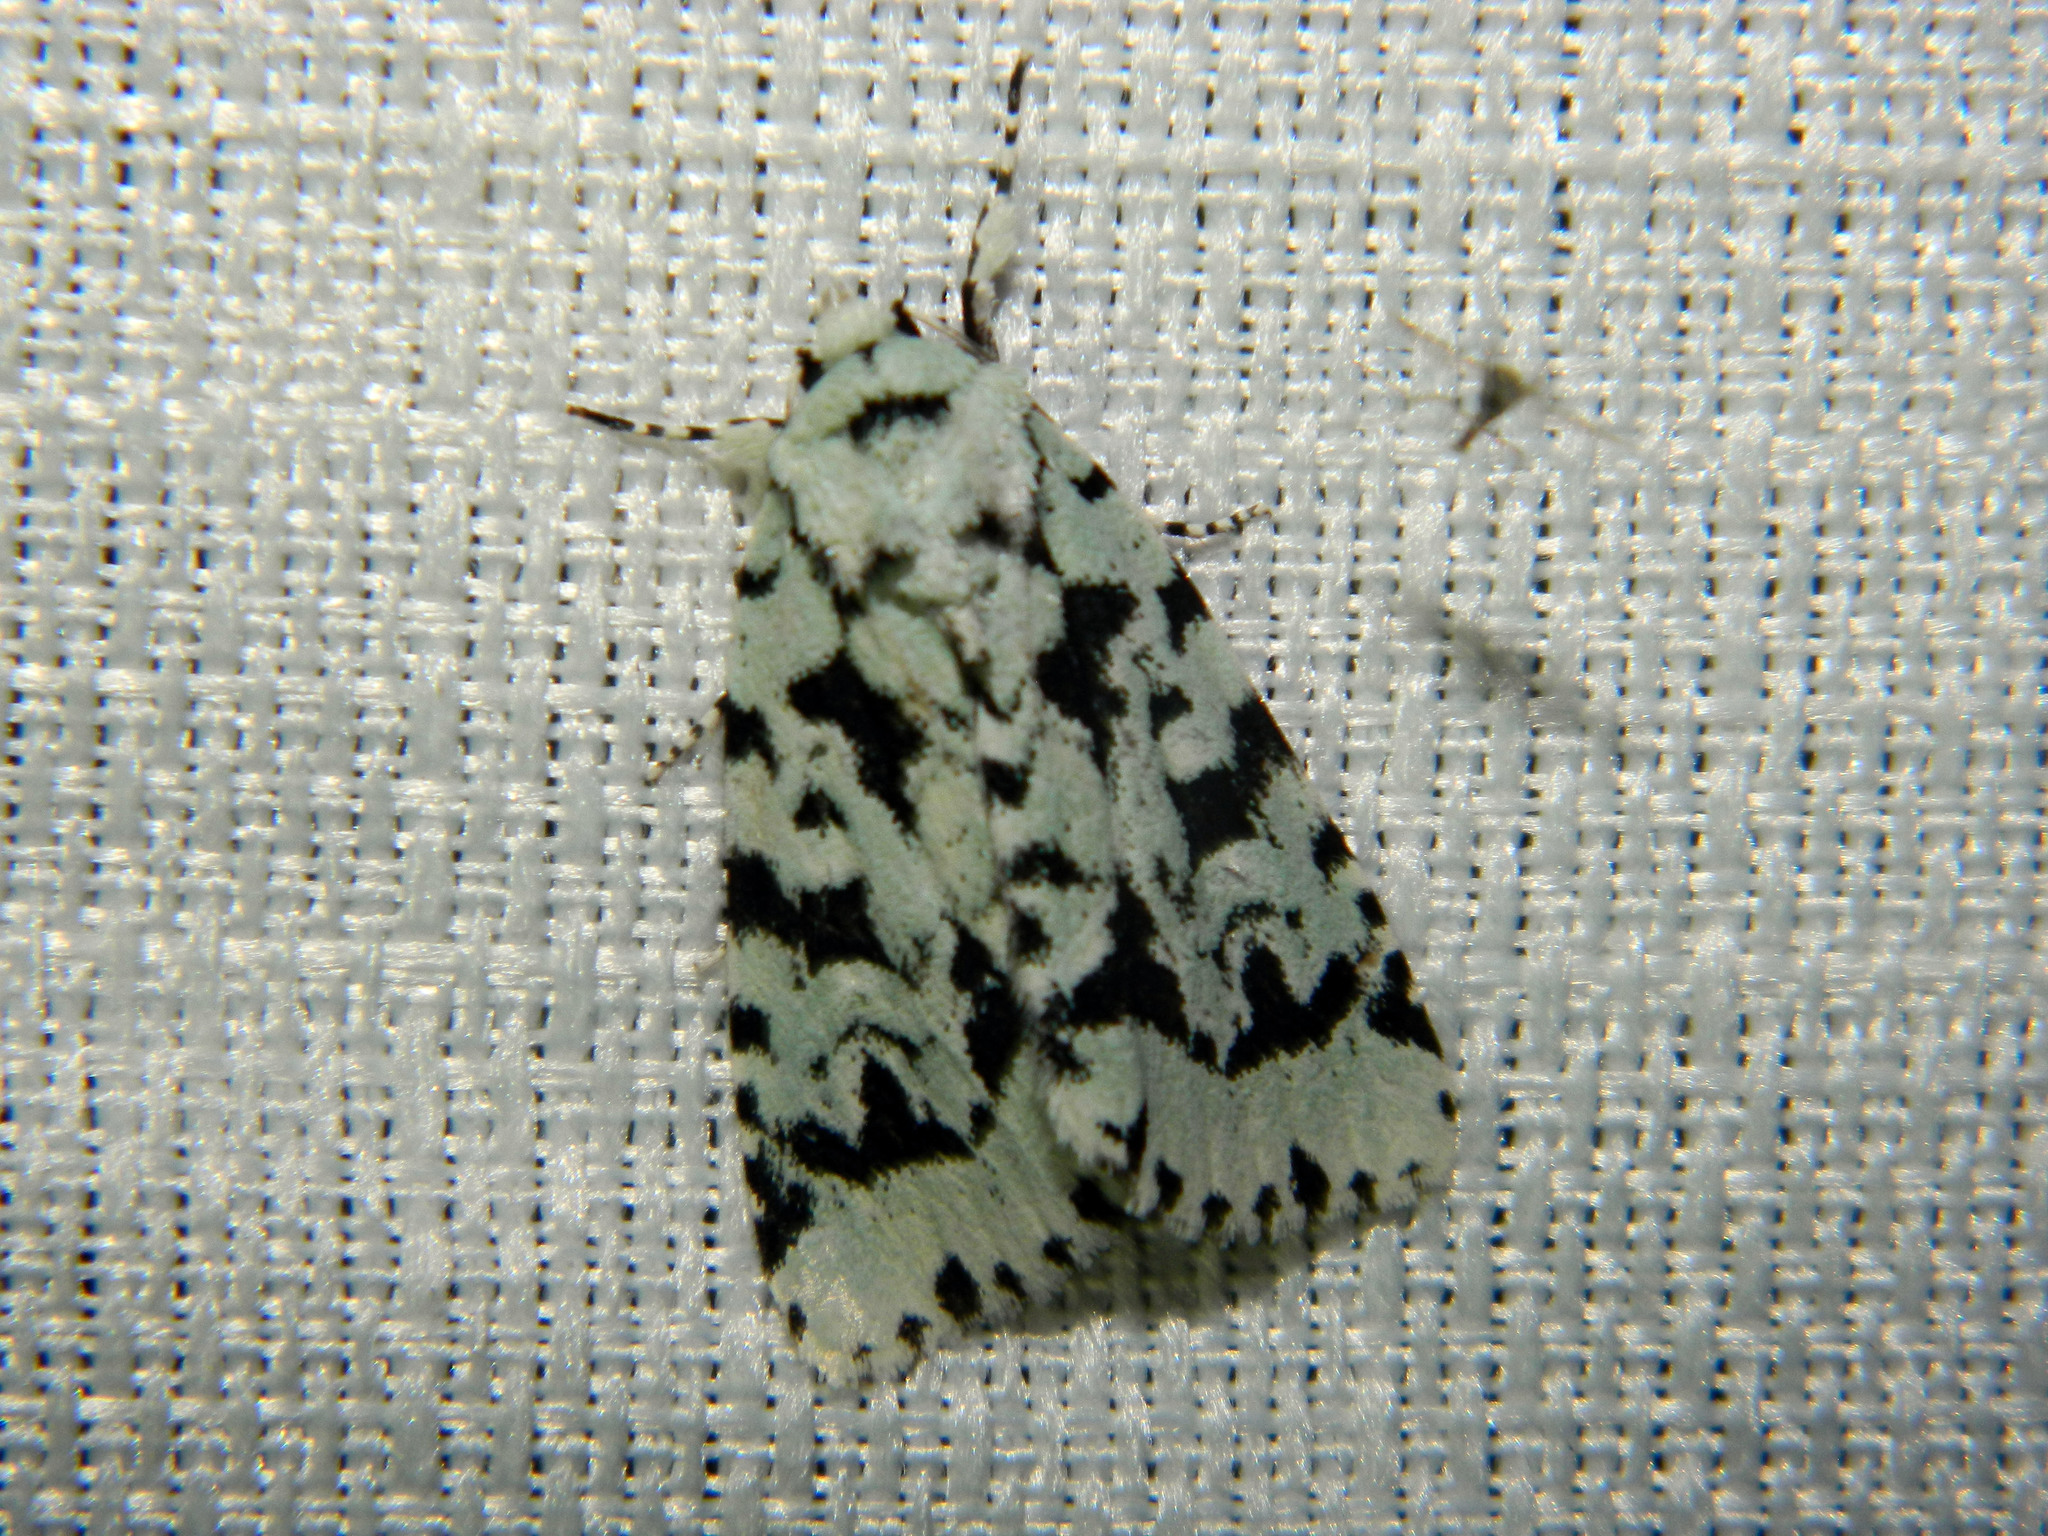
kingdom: Animalia
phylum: Arthropoda
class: Insecta
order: Lepidoptera
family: Noctuidae
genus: Acronicta
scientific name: Acronicta fallax
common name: Green marvel
